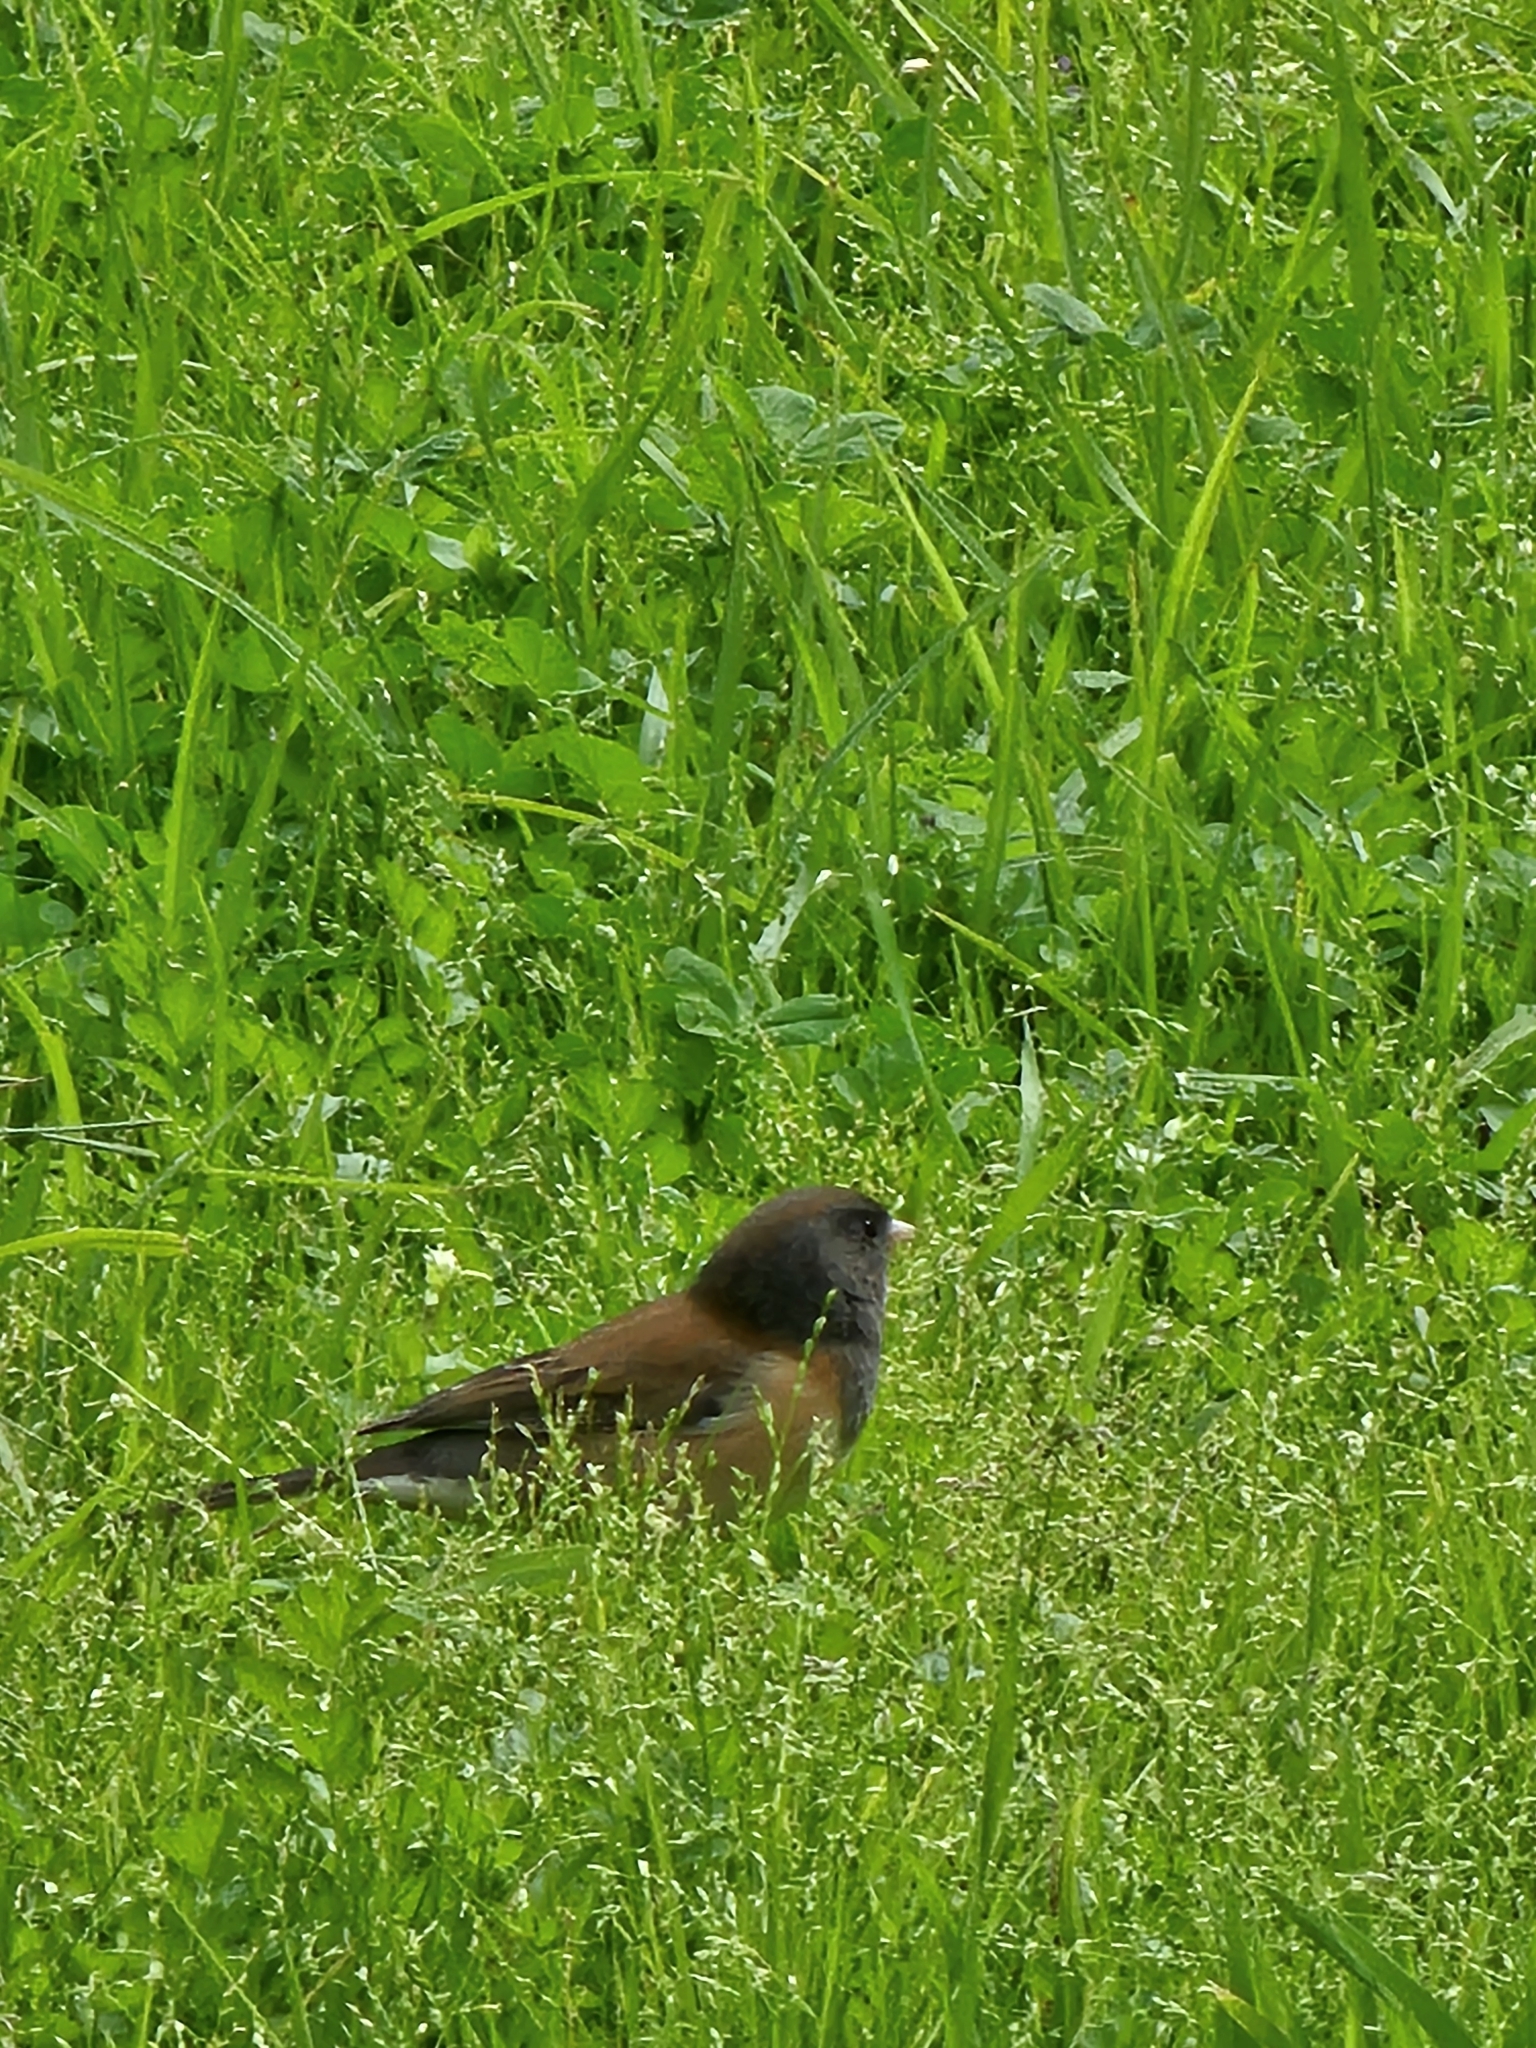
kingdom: Animalia
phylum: Chordata
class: Aves
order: Passeriformes
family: Passerellidae
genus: Junco
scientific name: Junco hyemalis
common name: Dark-eyed junco
